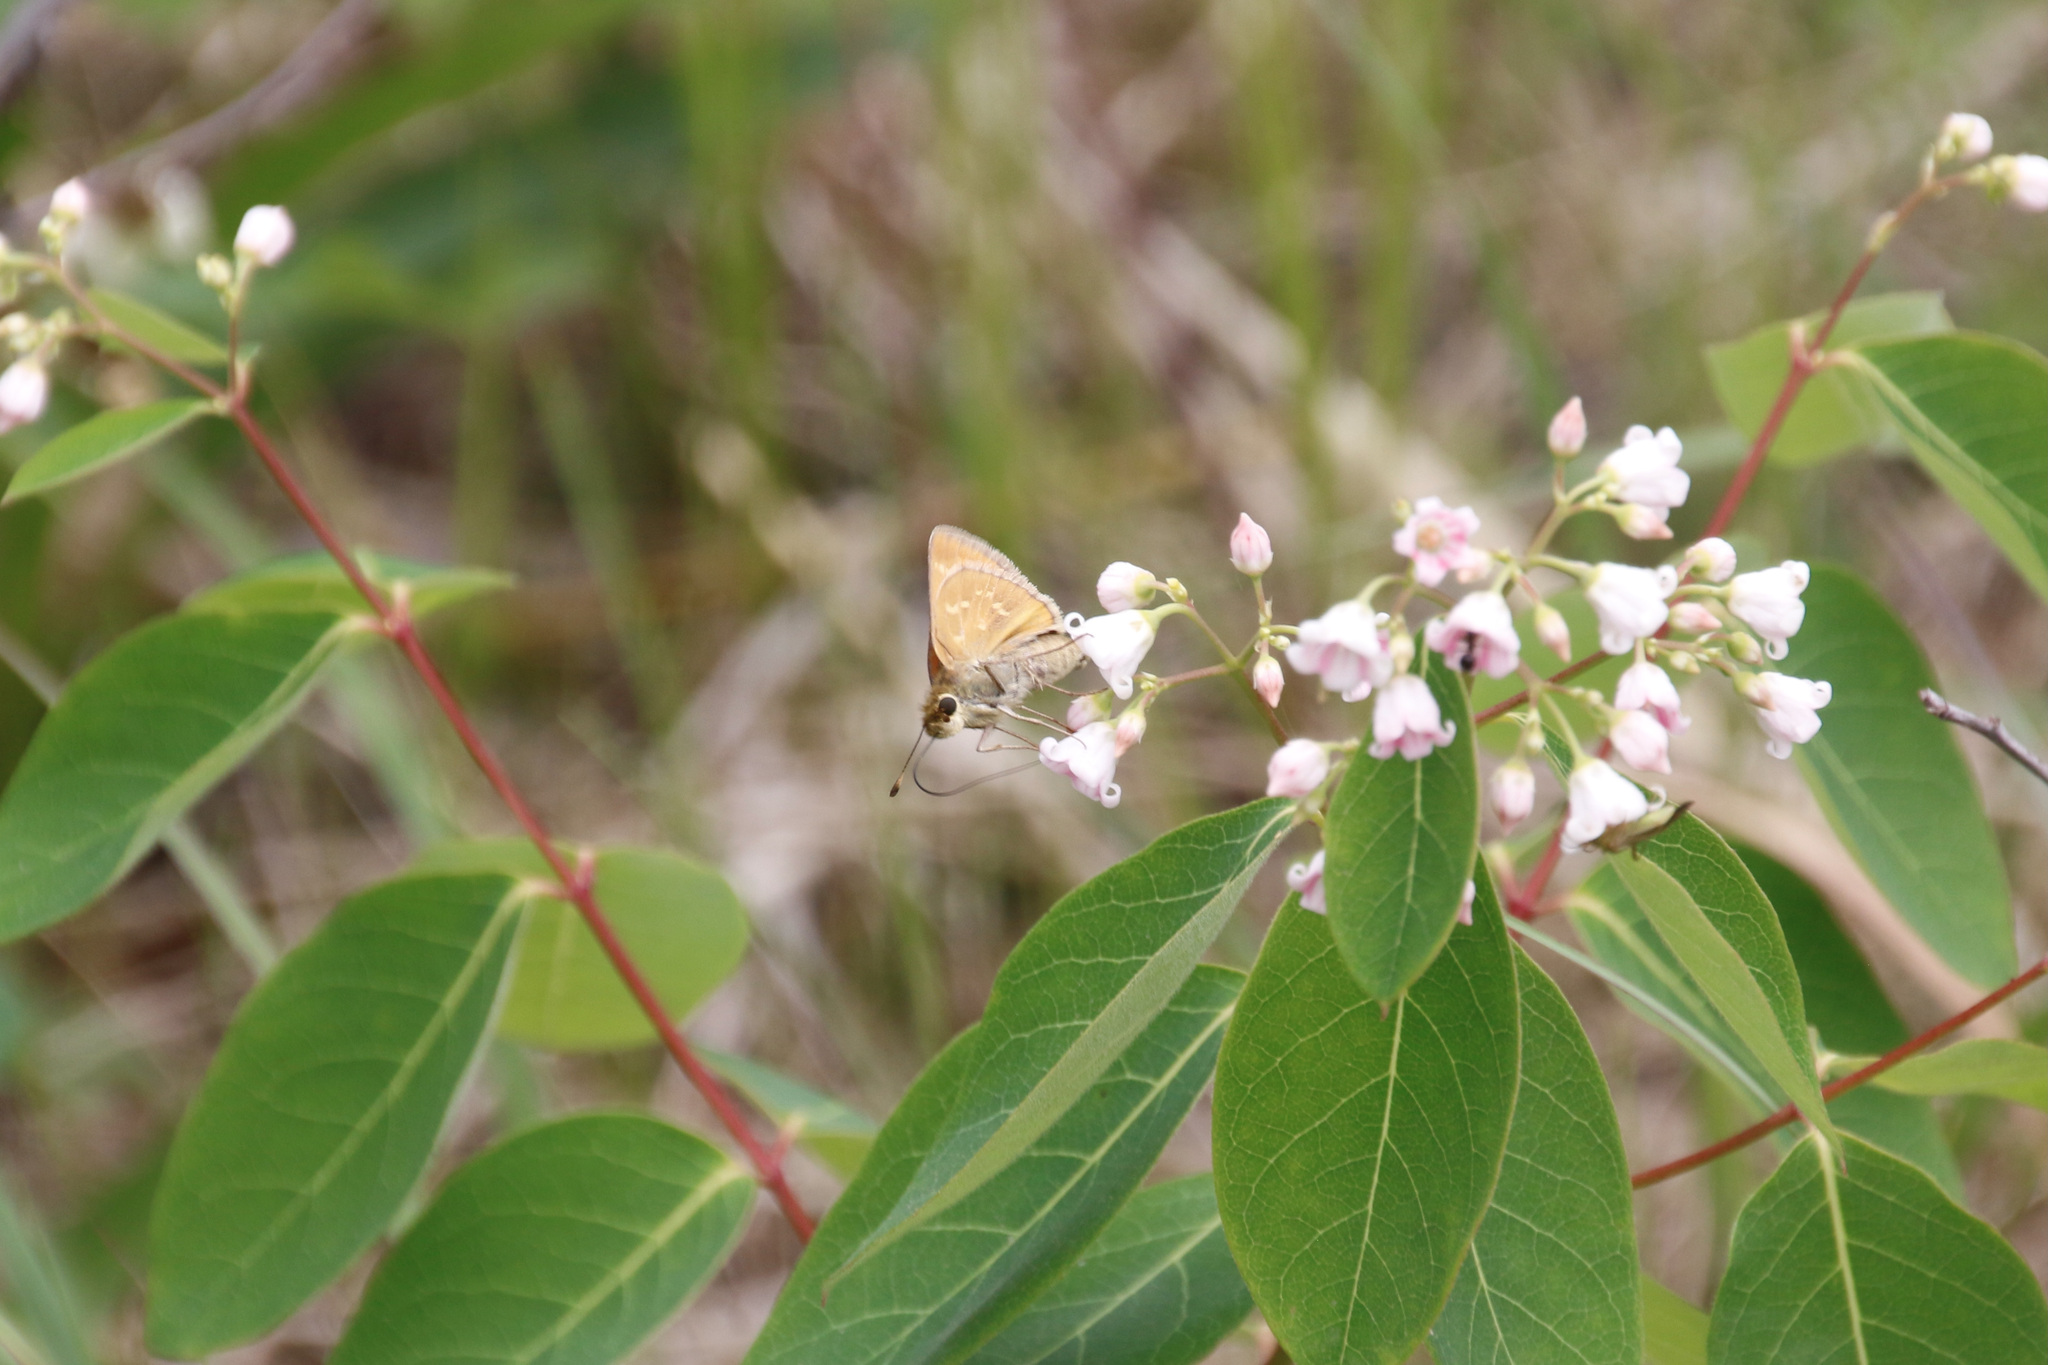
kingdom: Animalia
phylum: Arthropoda
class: Insecta
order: Lepidoptera
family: Hesperiidae
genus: Hesperia
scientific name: Hesperia sassacus
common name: Indian skipper
